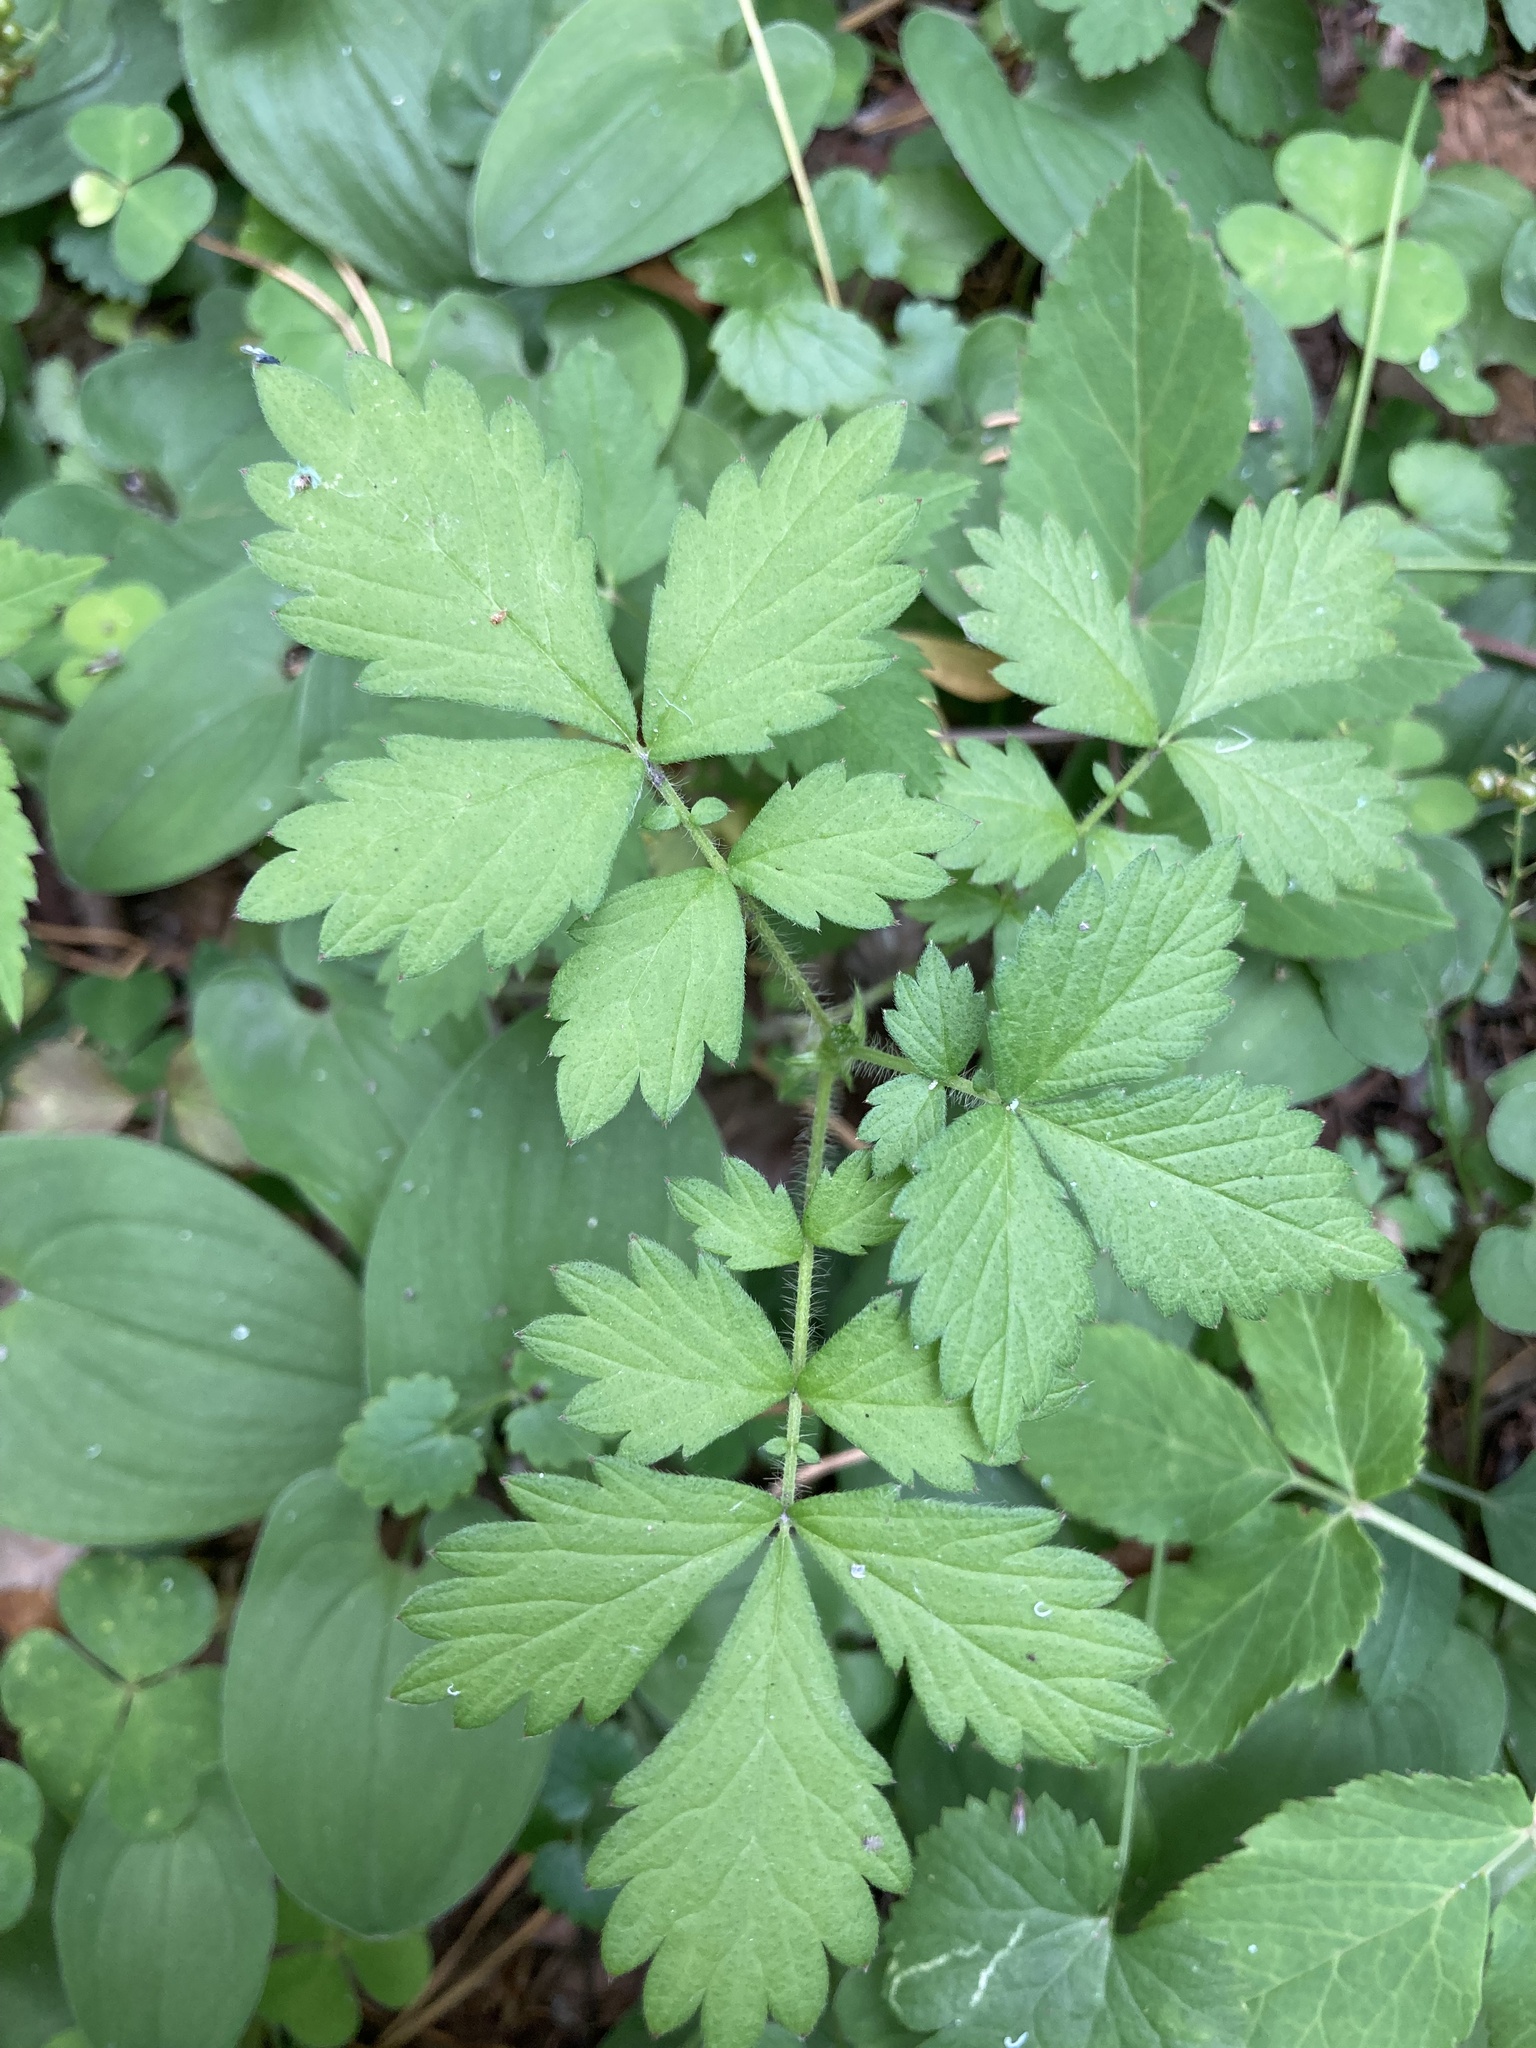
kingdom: Plantae
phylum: Tracheophyta
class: Magnoliopsida
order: Rosales
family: Rosaceae
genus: Agrimonia
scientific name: Agrimonia pilosa
